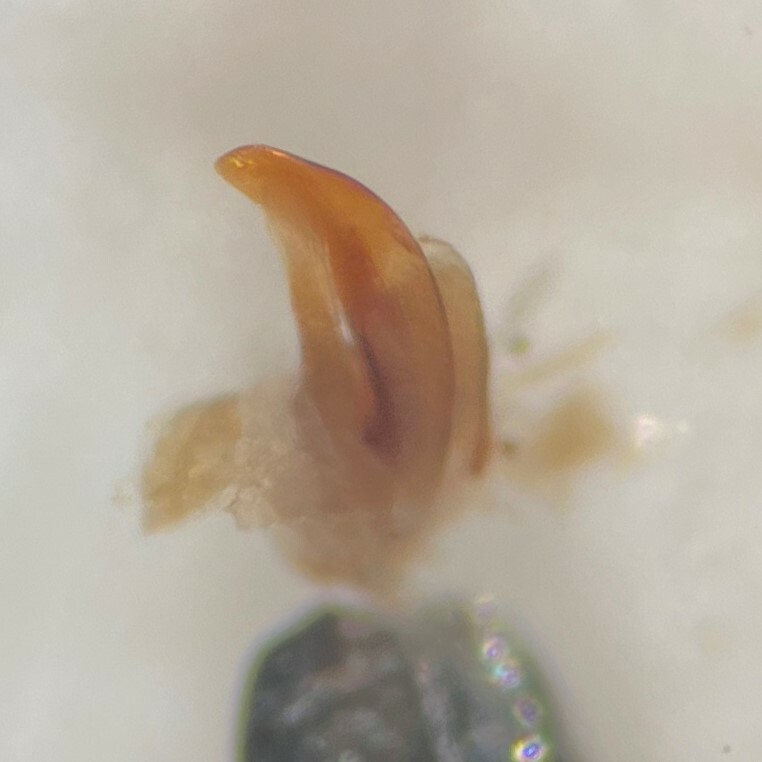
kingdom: Animalia
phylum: Arthropoda
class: Insecta
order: Coleoptera
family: Haliplidae
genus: Peltodytes
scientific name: Peltodytes festivus
